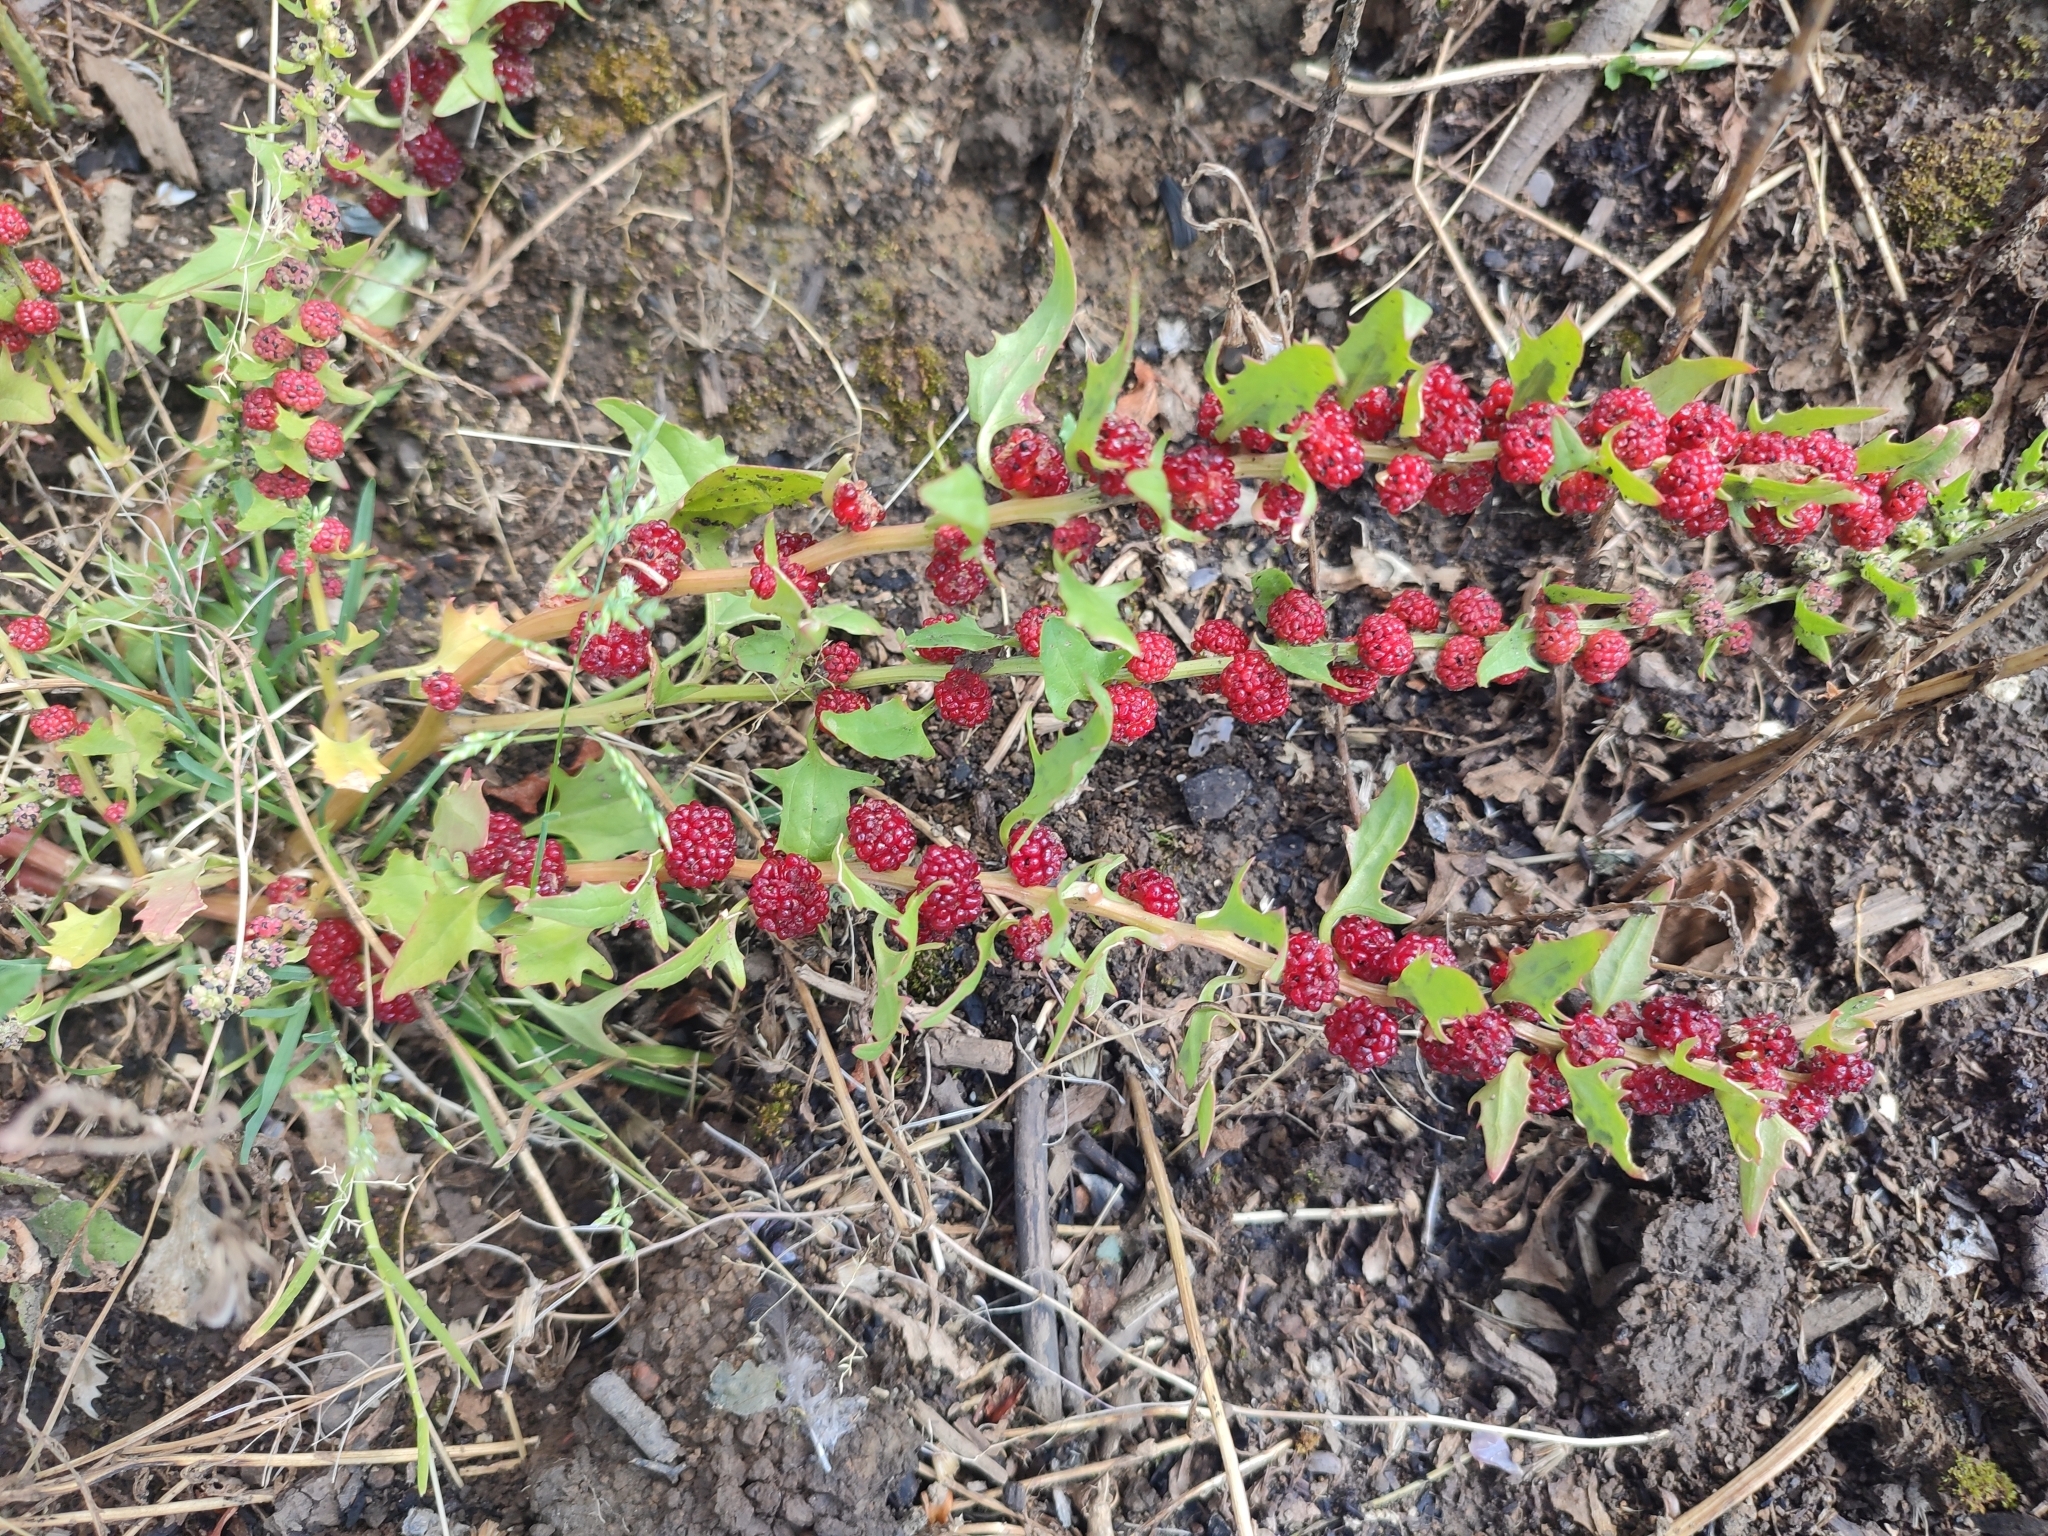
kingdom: Plantae
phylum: Tracheophyta
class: Magnoliopsida
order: Caryophyllales
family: Amaranthaceae
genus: Blitum
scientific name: Blitum virgatum
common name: Strawberry goosefoot
